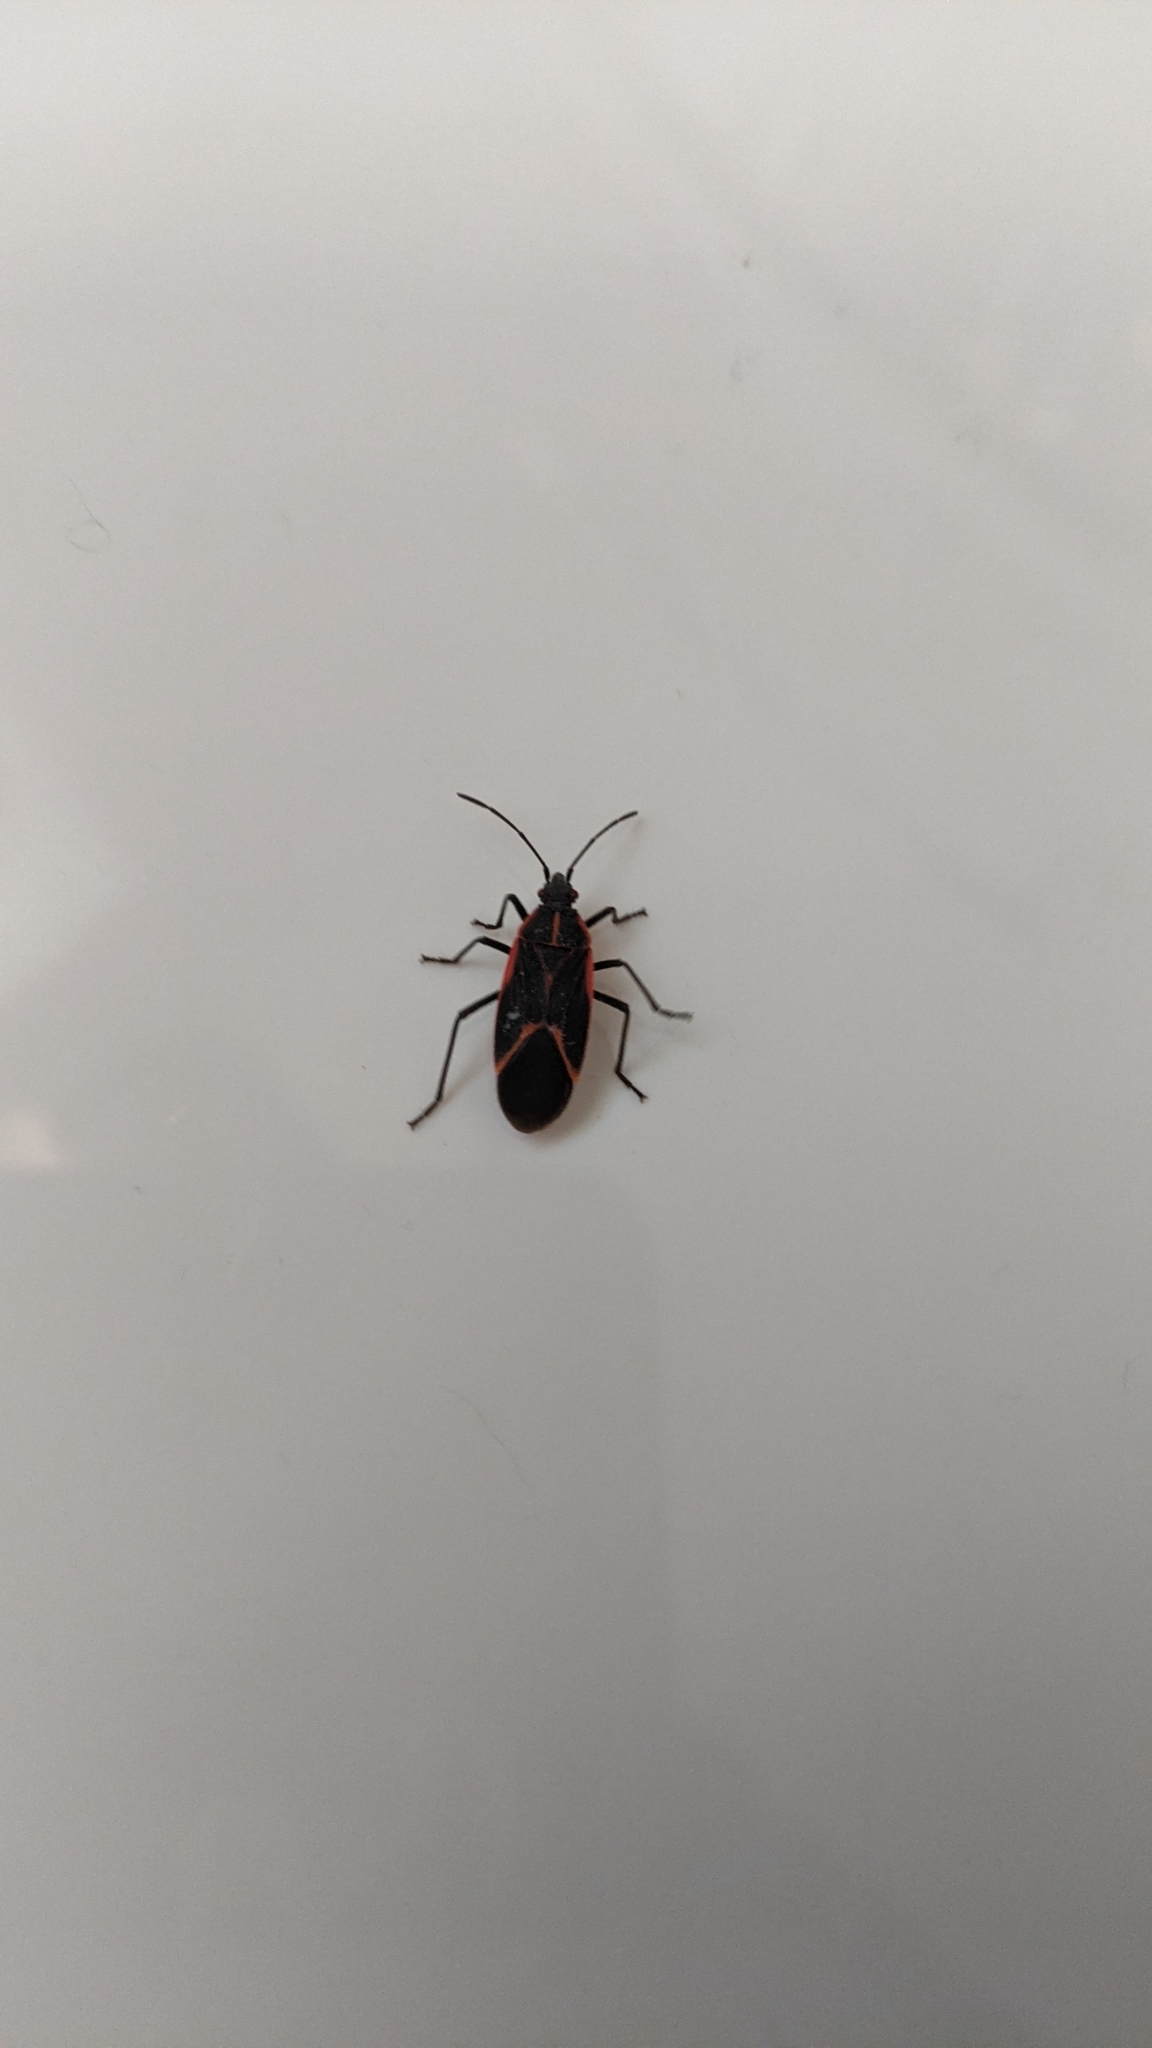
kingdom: Animalia
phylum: Arthropoda
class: Insecta
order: Hemiptera
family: Rhopalidae
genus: Boisea
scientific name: Boisea trivittata
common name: Boxelder bug
